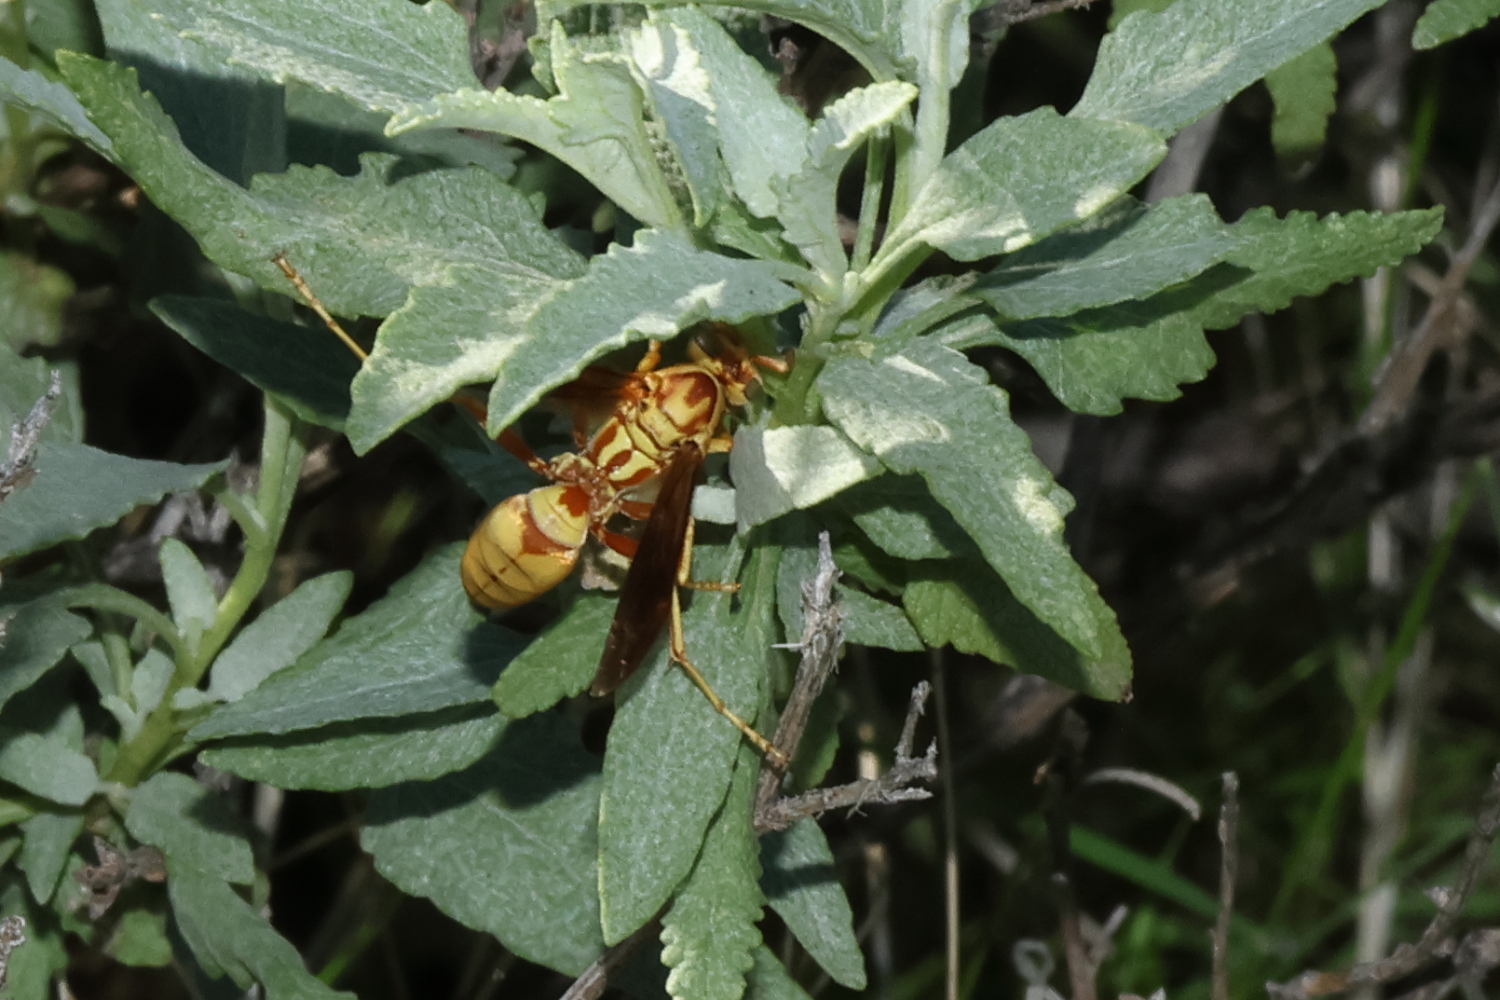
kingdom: Animalia
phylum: Arthropoda
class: Insecta
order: Hymenoptera
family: Eumenidae
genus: Polistes
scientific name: Polistes aurifer
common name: Paper wasp
